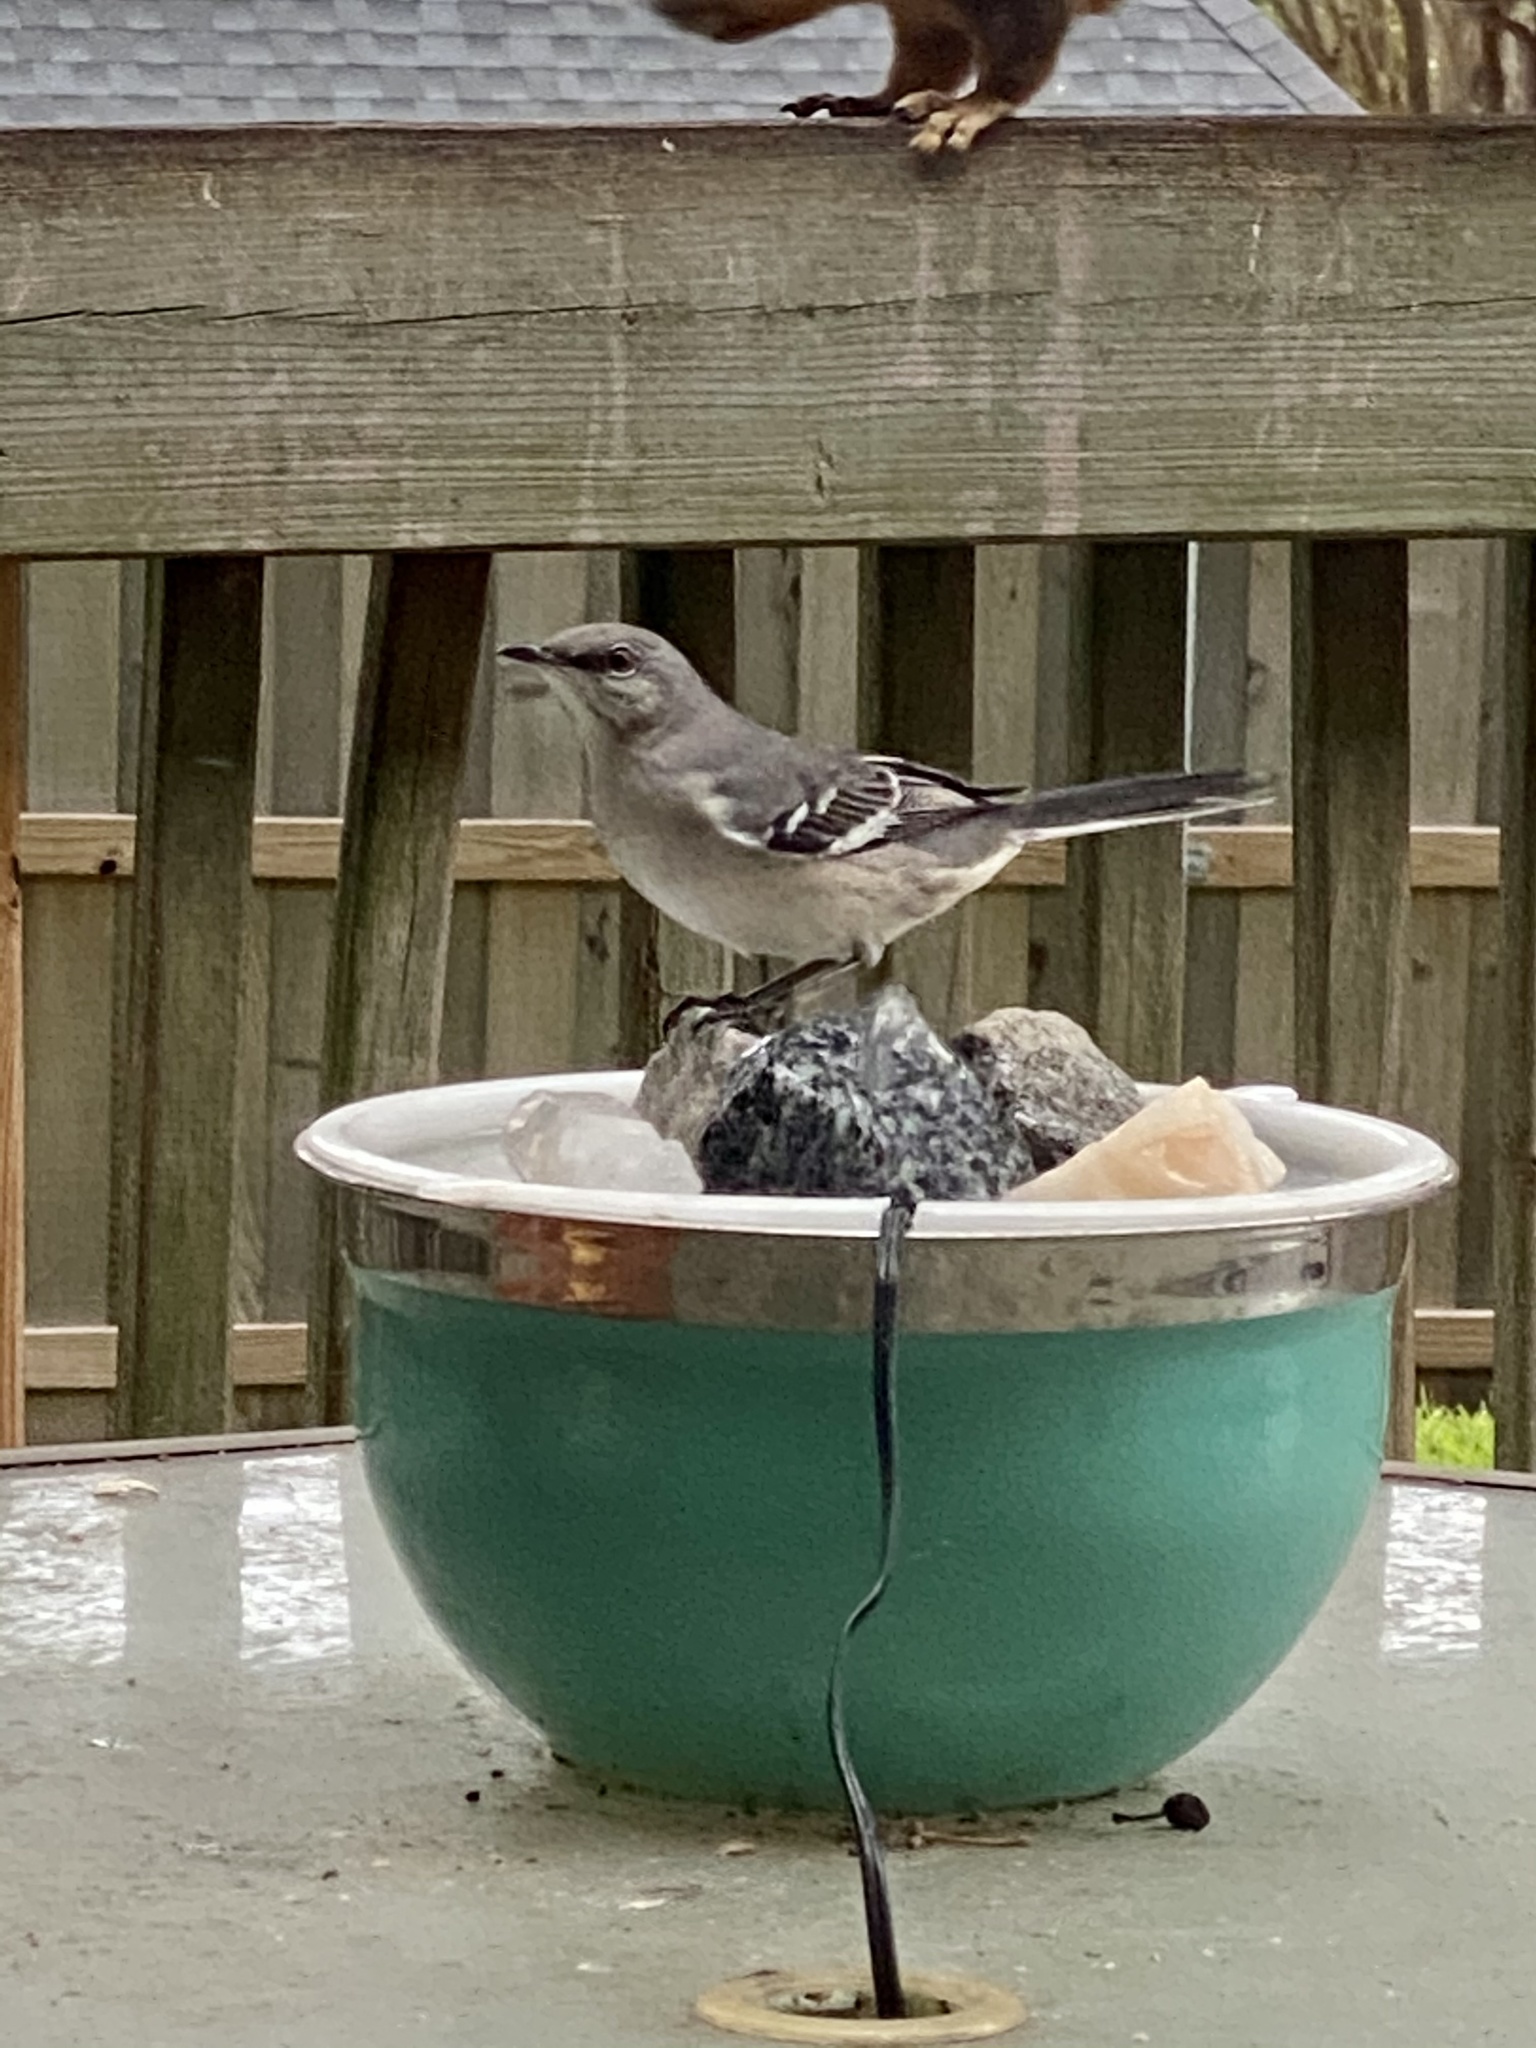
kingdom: Animalia
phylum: Chordata
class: Aves
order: Passeriformes
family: Mimidae
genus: Mimus
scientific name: Mimus polyglottos
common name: Northern mockingbird
